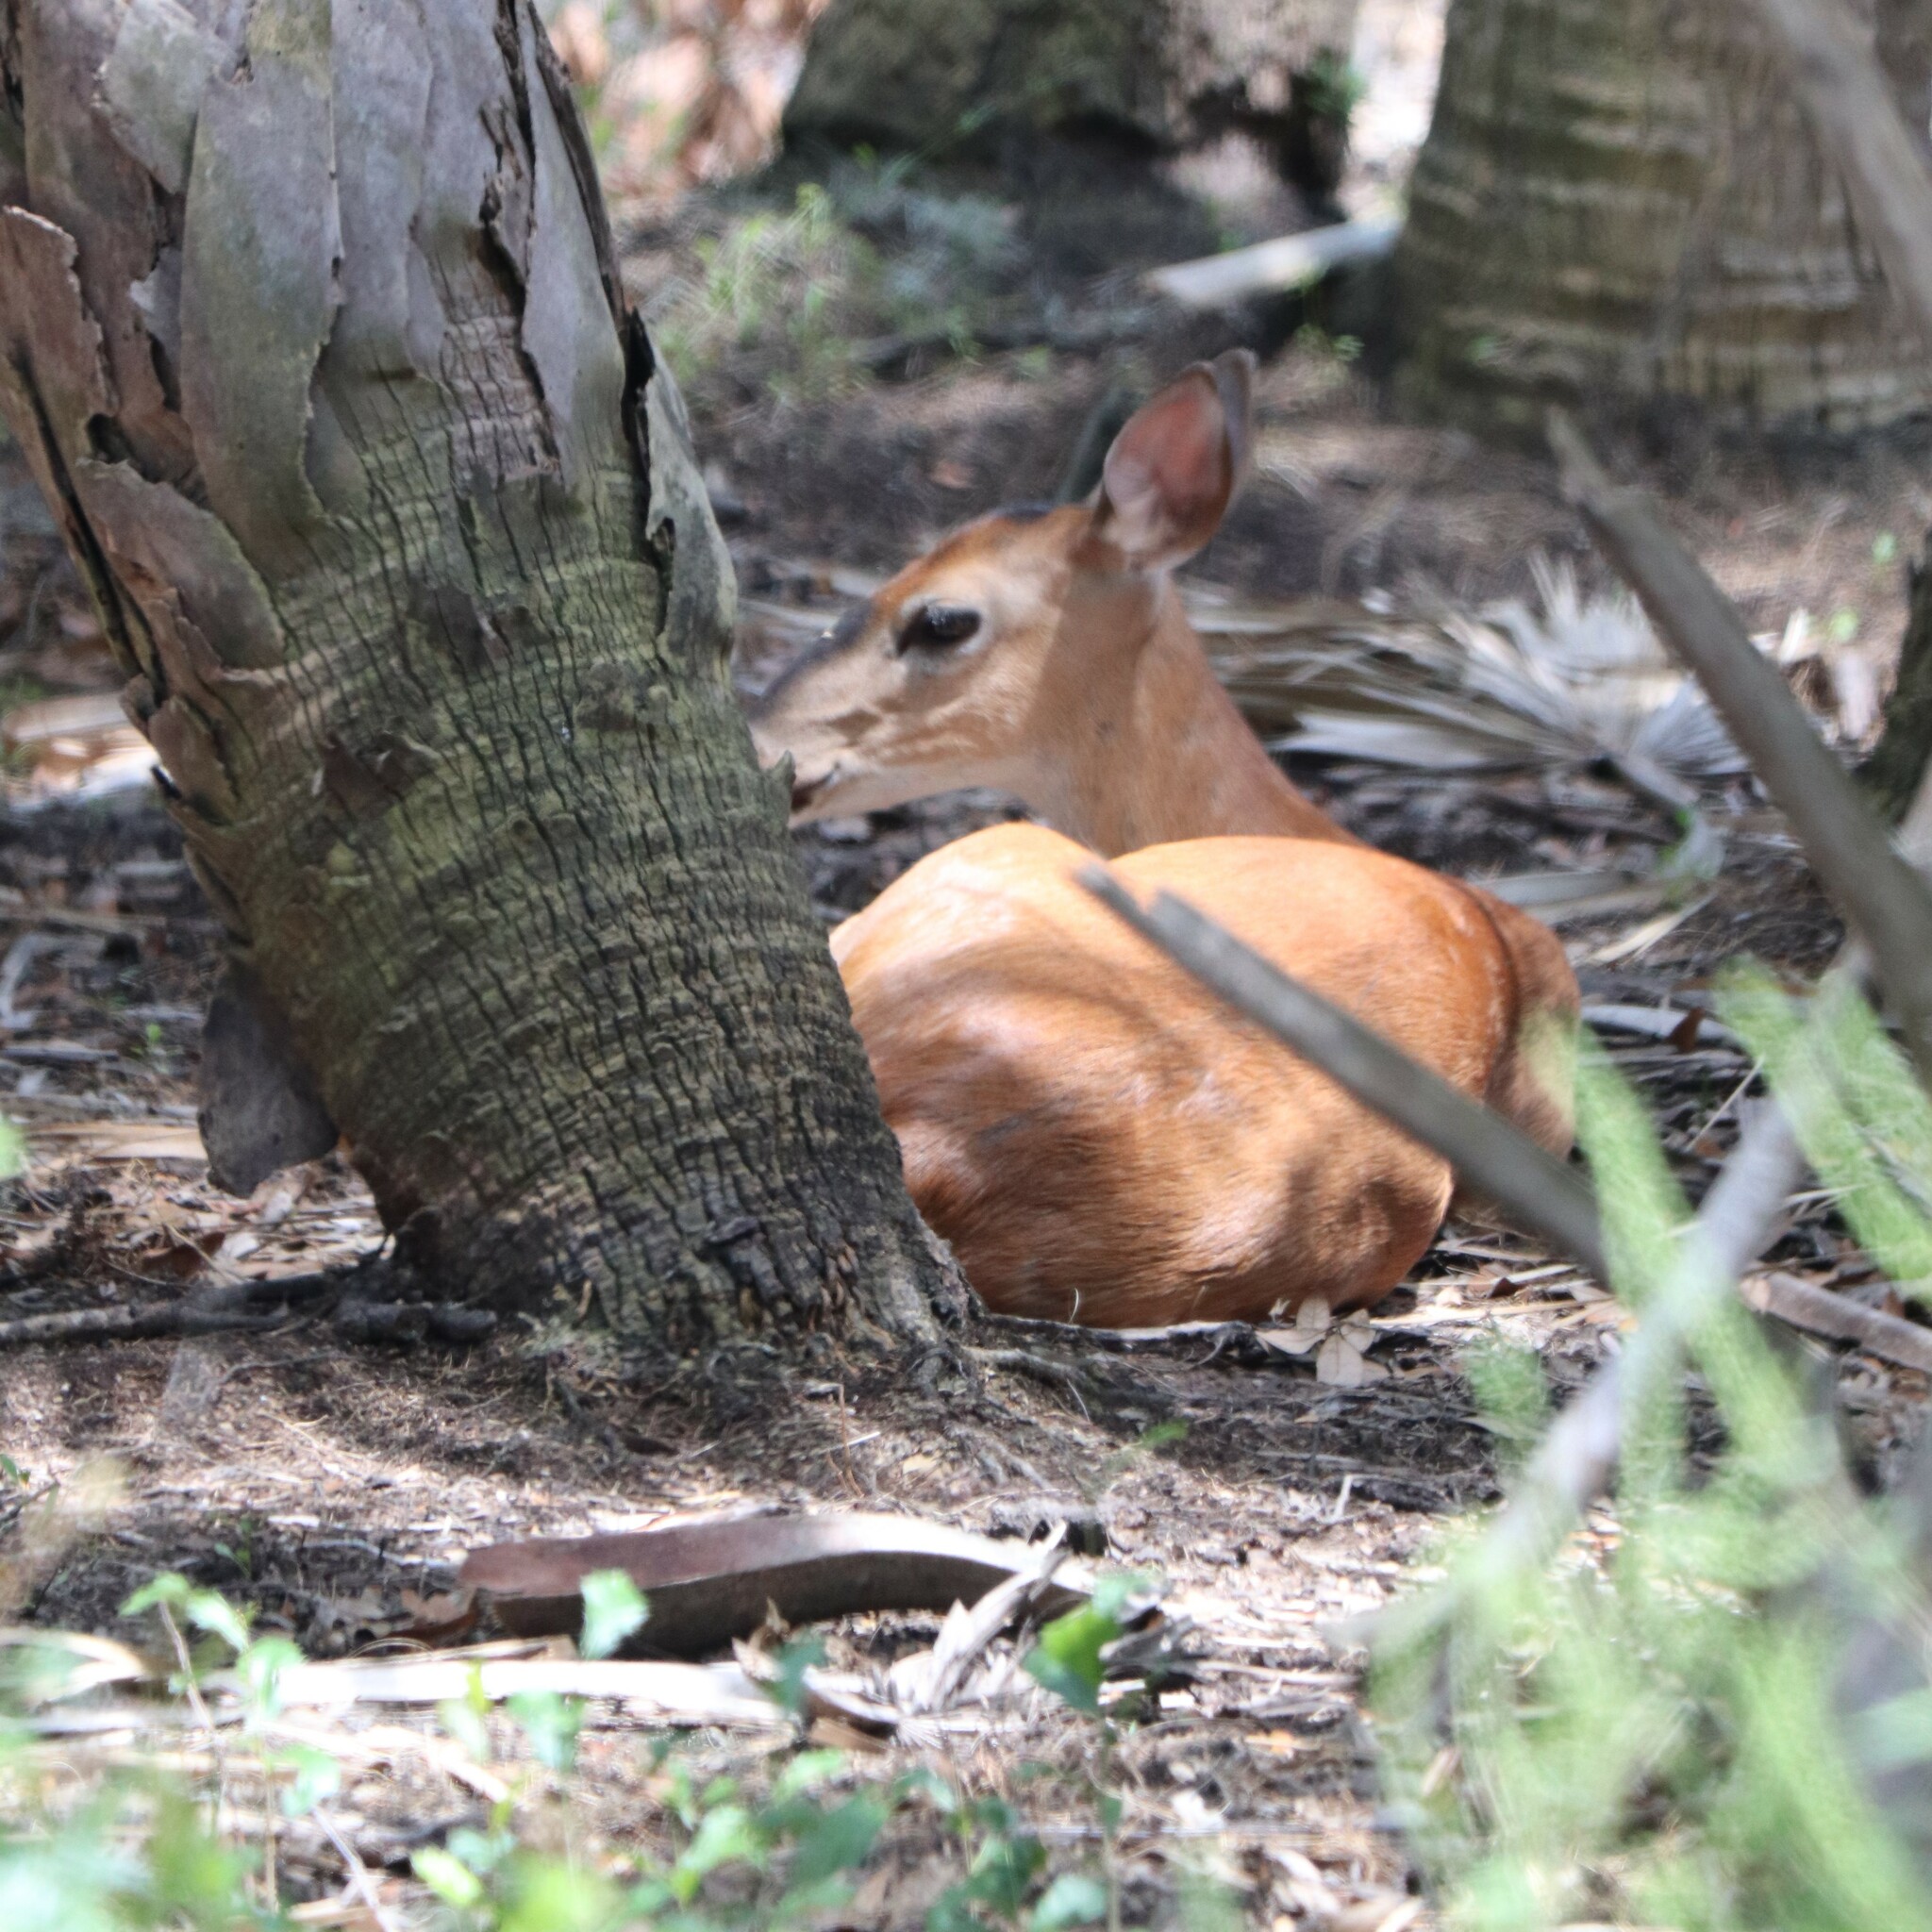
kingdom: Animalia
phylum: Chordata
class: Mammalia
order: Artiodactyla
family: Cervidae
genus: Odocoileus
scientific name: Odocoileus virginianus
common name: White-tailed deer
